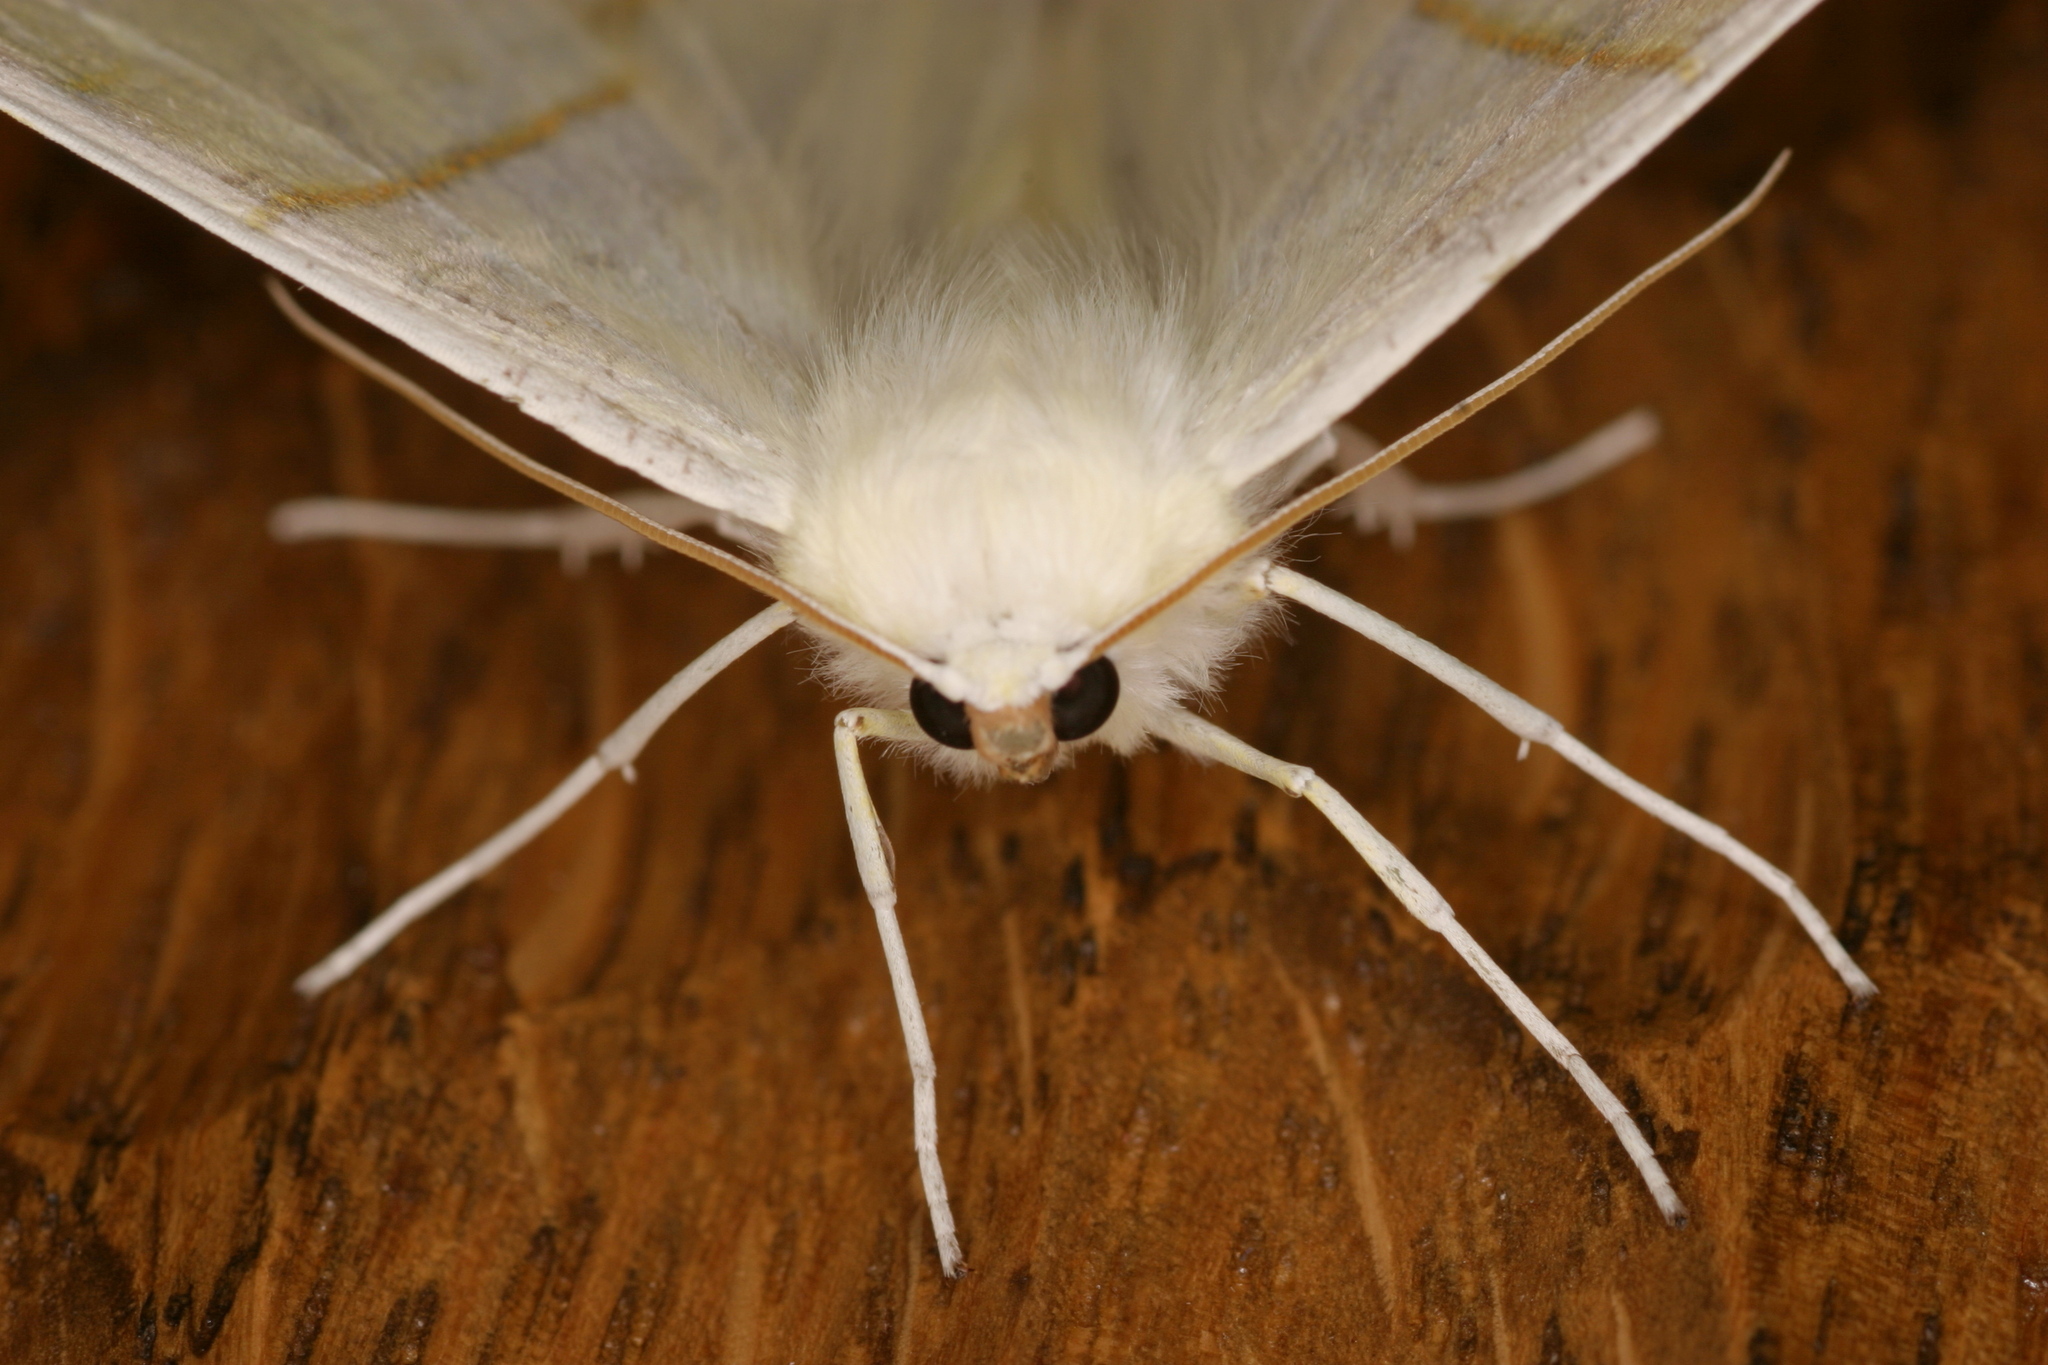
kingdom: Animalia
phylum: Arthropoda
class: Insecta
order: Lepidoptera
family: Geometridae
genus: Ourapteryx
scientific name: Ourapteryx sambucaria
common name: Swallow-tailed moth
